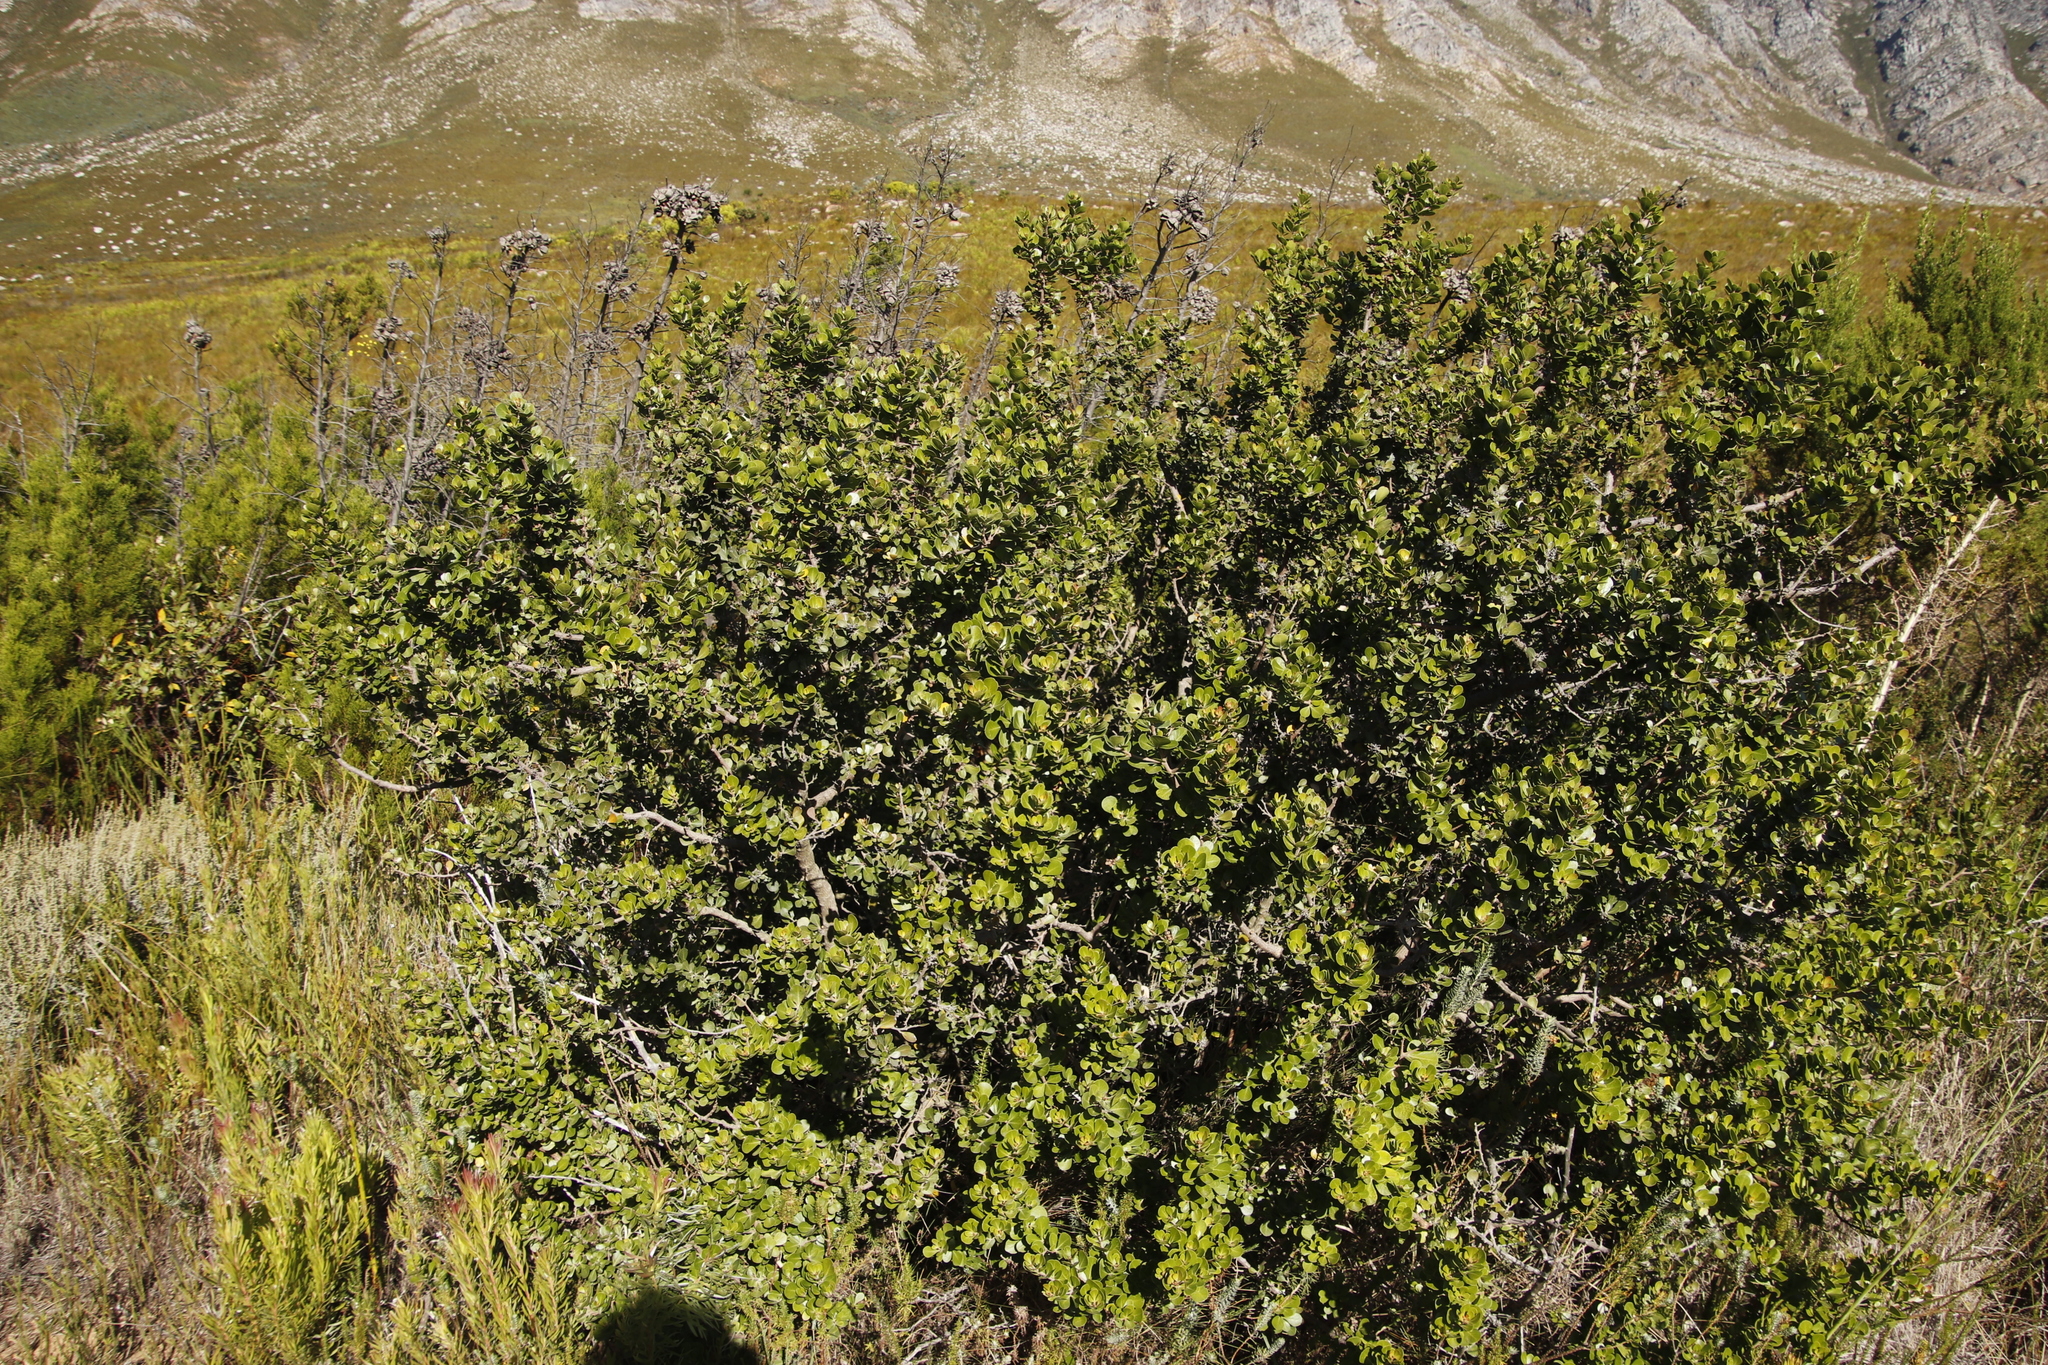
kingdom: Plantae
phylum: Tracheophyta
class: Magnoliopsida
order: Sapindales
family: Anacardiaceae
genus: Searsia
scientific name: Searsia lucida
